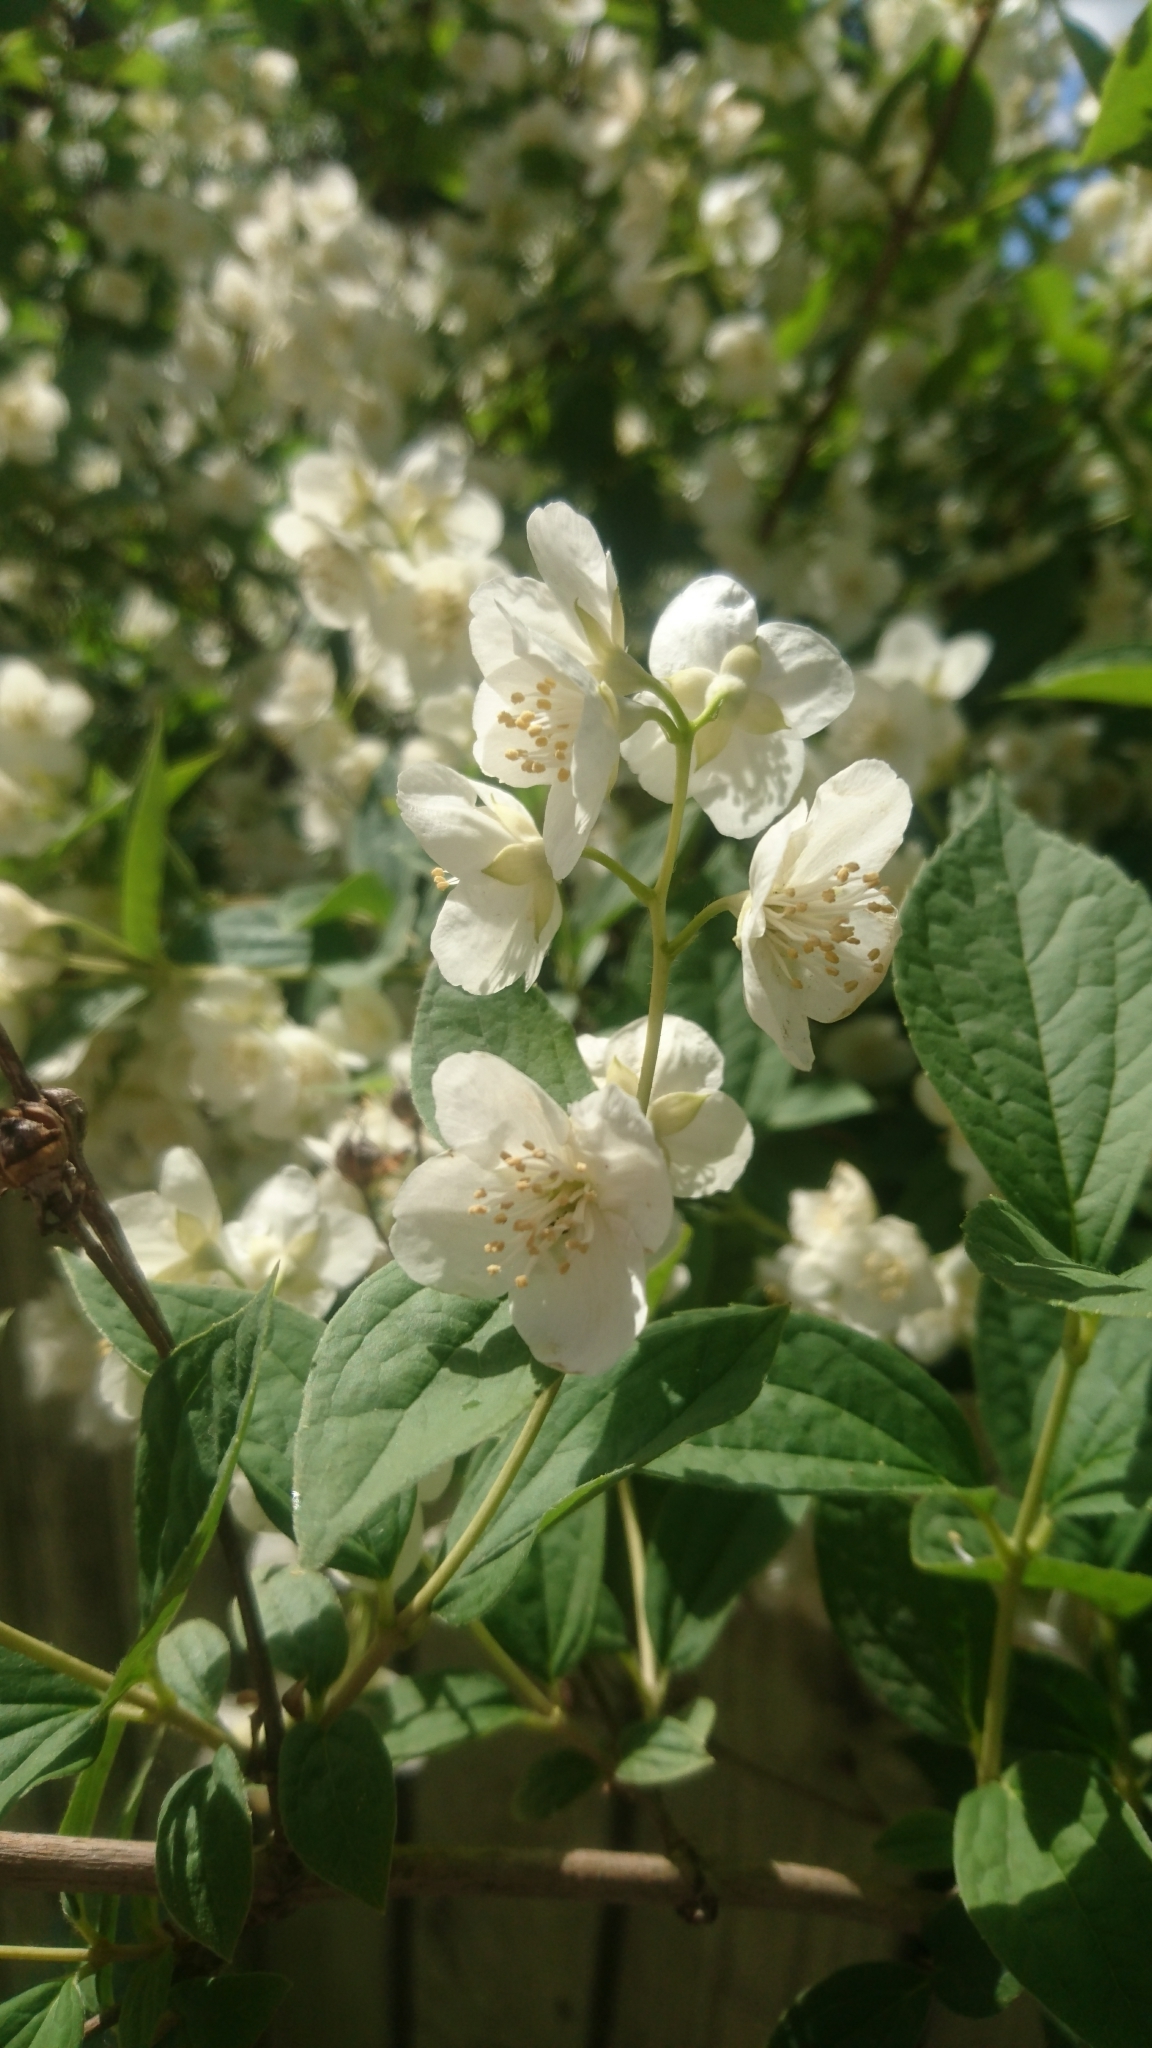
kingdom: Plantae
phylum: Tracheophyta
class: Magnoliopsida
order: Cornales
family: Hydrangeaceae
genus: Philadelphus
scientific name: Philadelphus coronarius
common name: Mock orange
